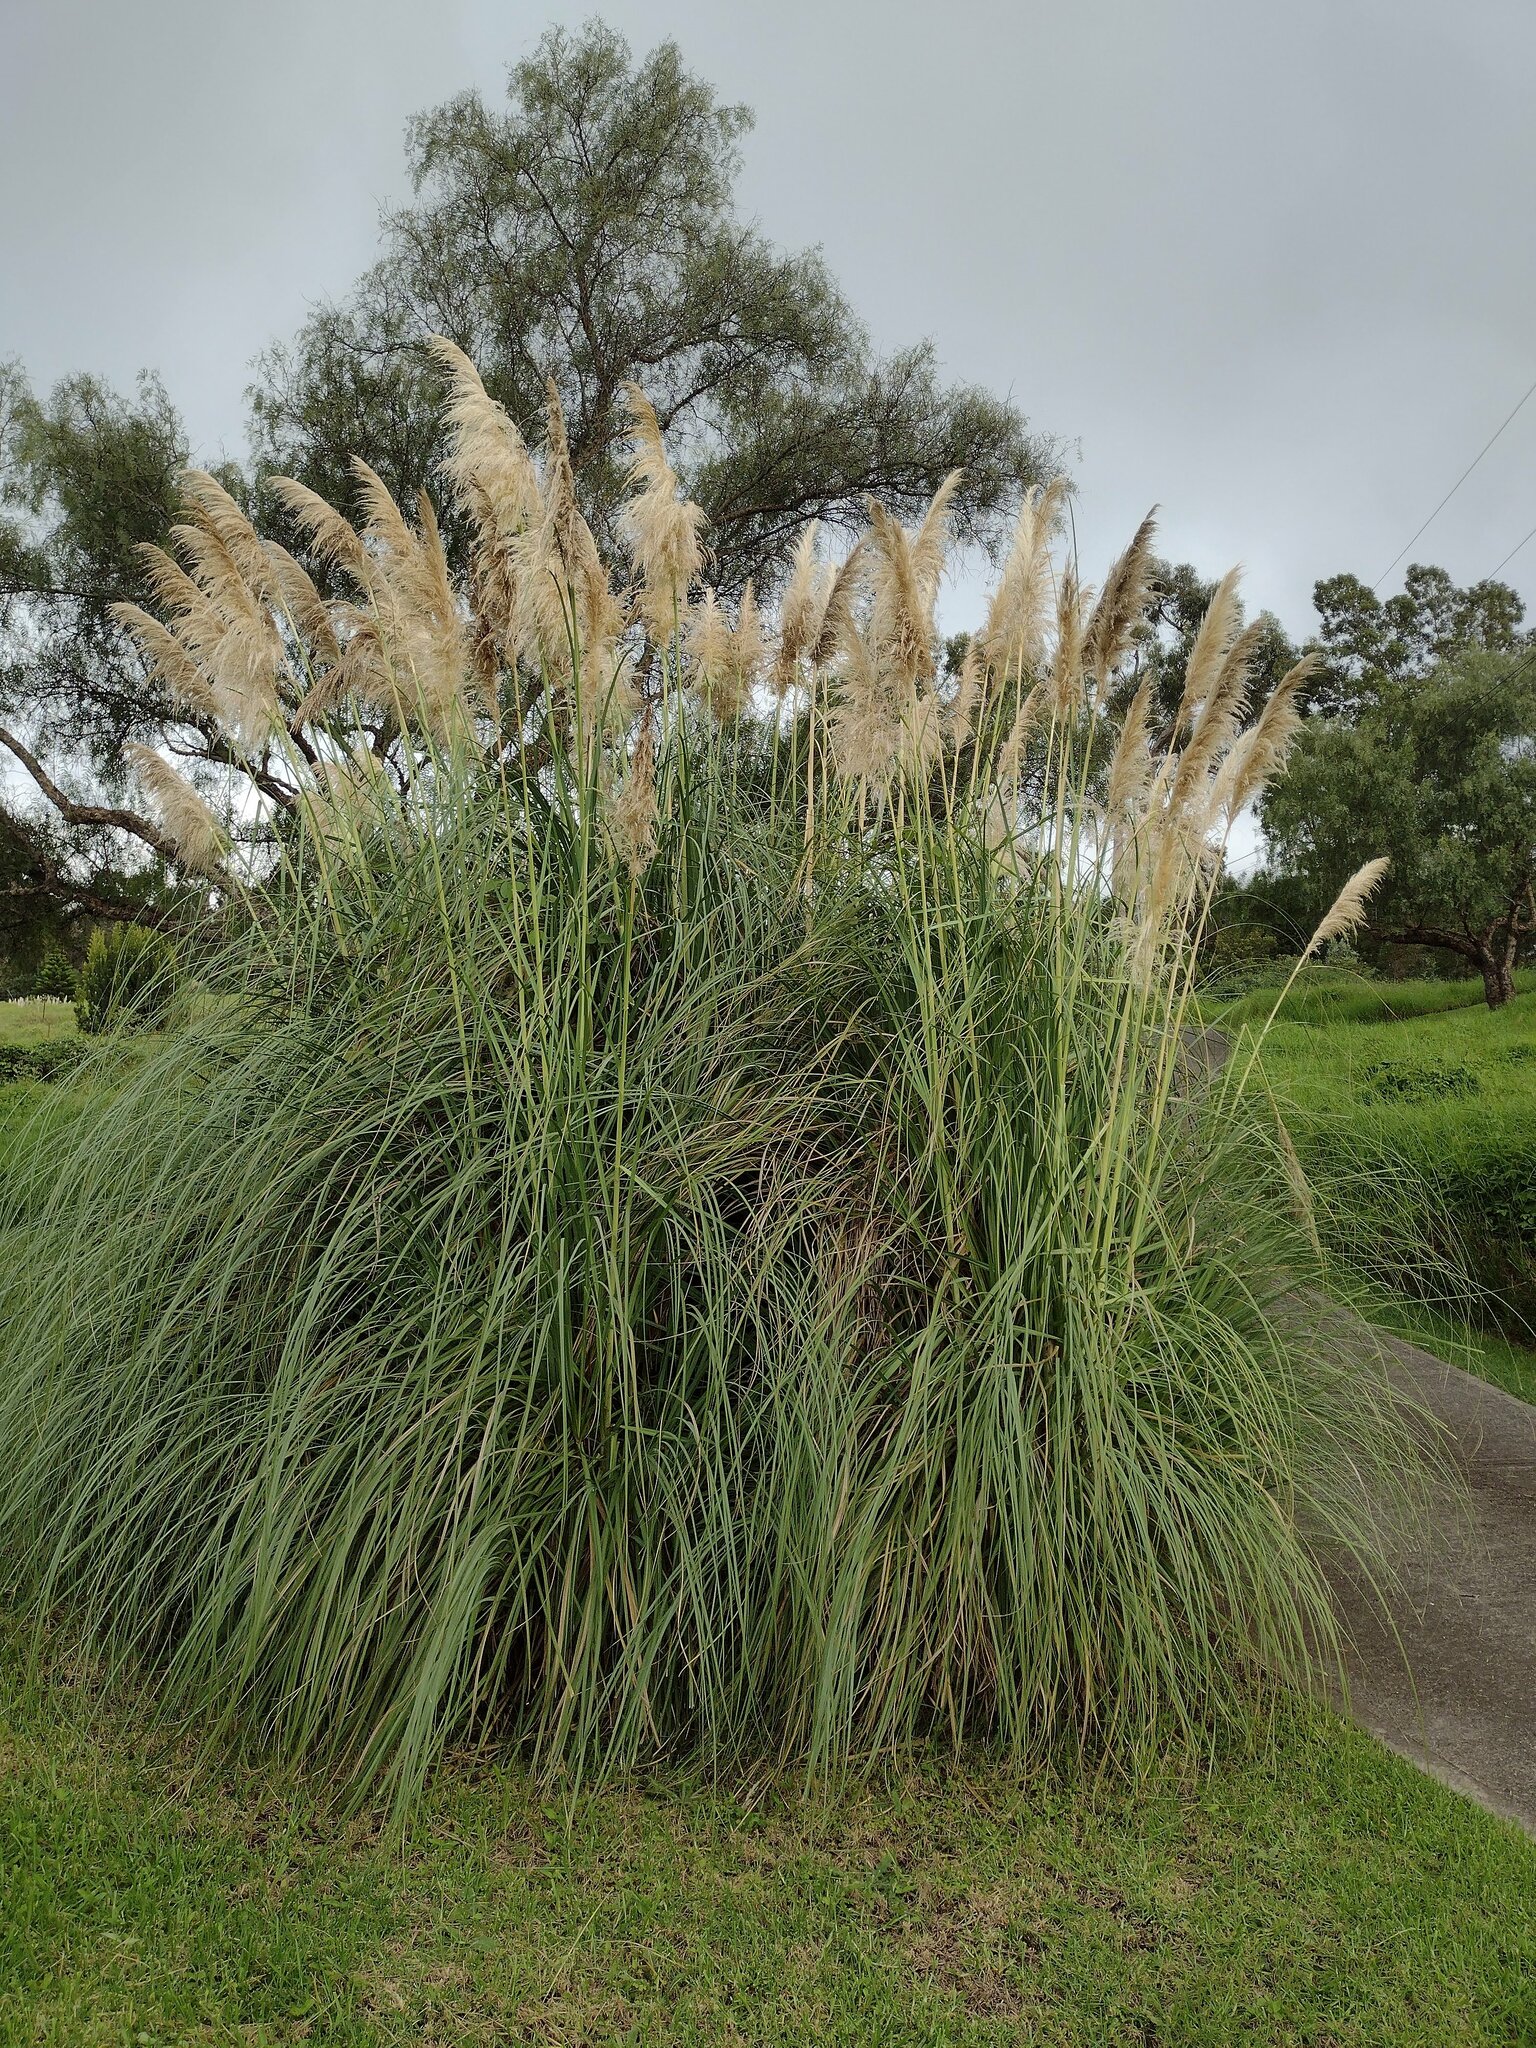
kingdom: Plantae
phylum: Tracheophyta
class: Liliopsida
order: Poales
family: Poaceae
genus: Cortaderia
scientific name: Cortaderia selloana
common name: Uruguayan pampas grass
